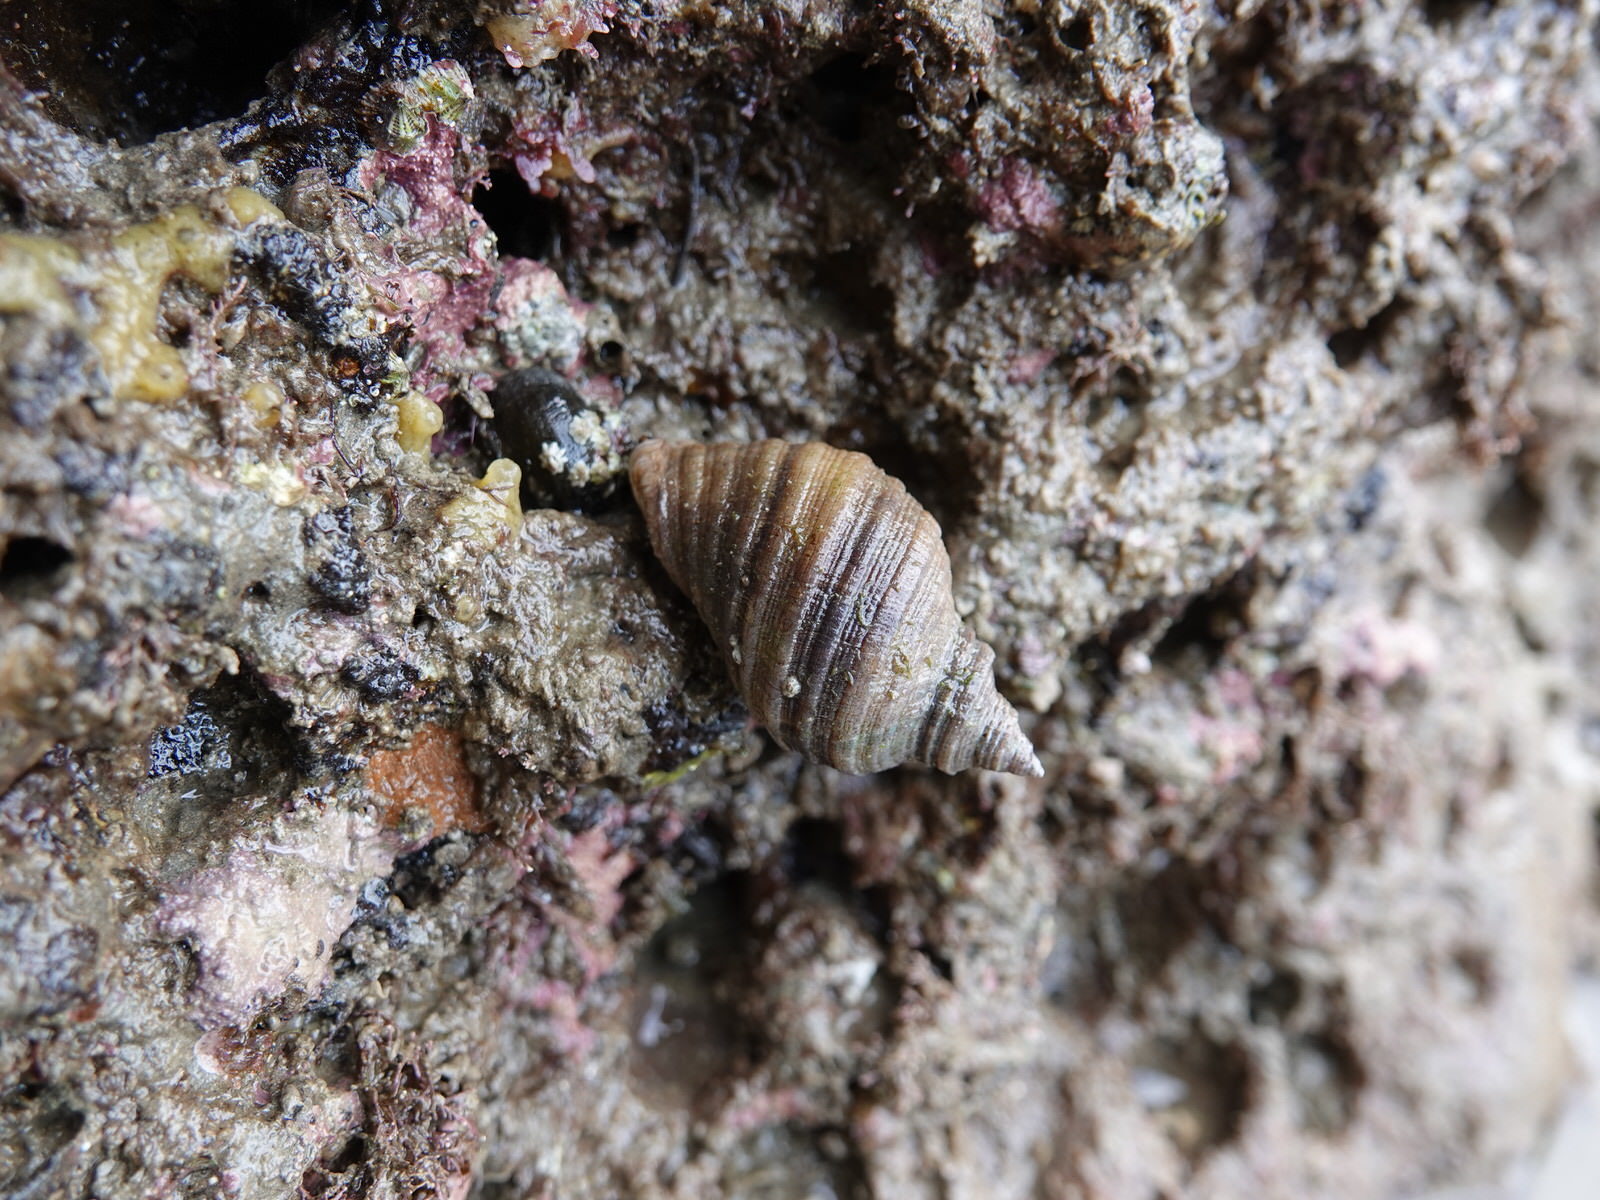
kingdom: Animalia
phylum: Mollusca
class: Gastropoda
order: Neogastropoda
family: Muricidae
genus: Dicathais
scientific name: Dicathais orbita
